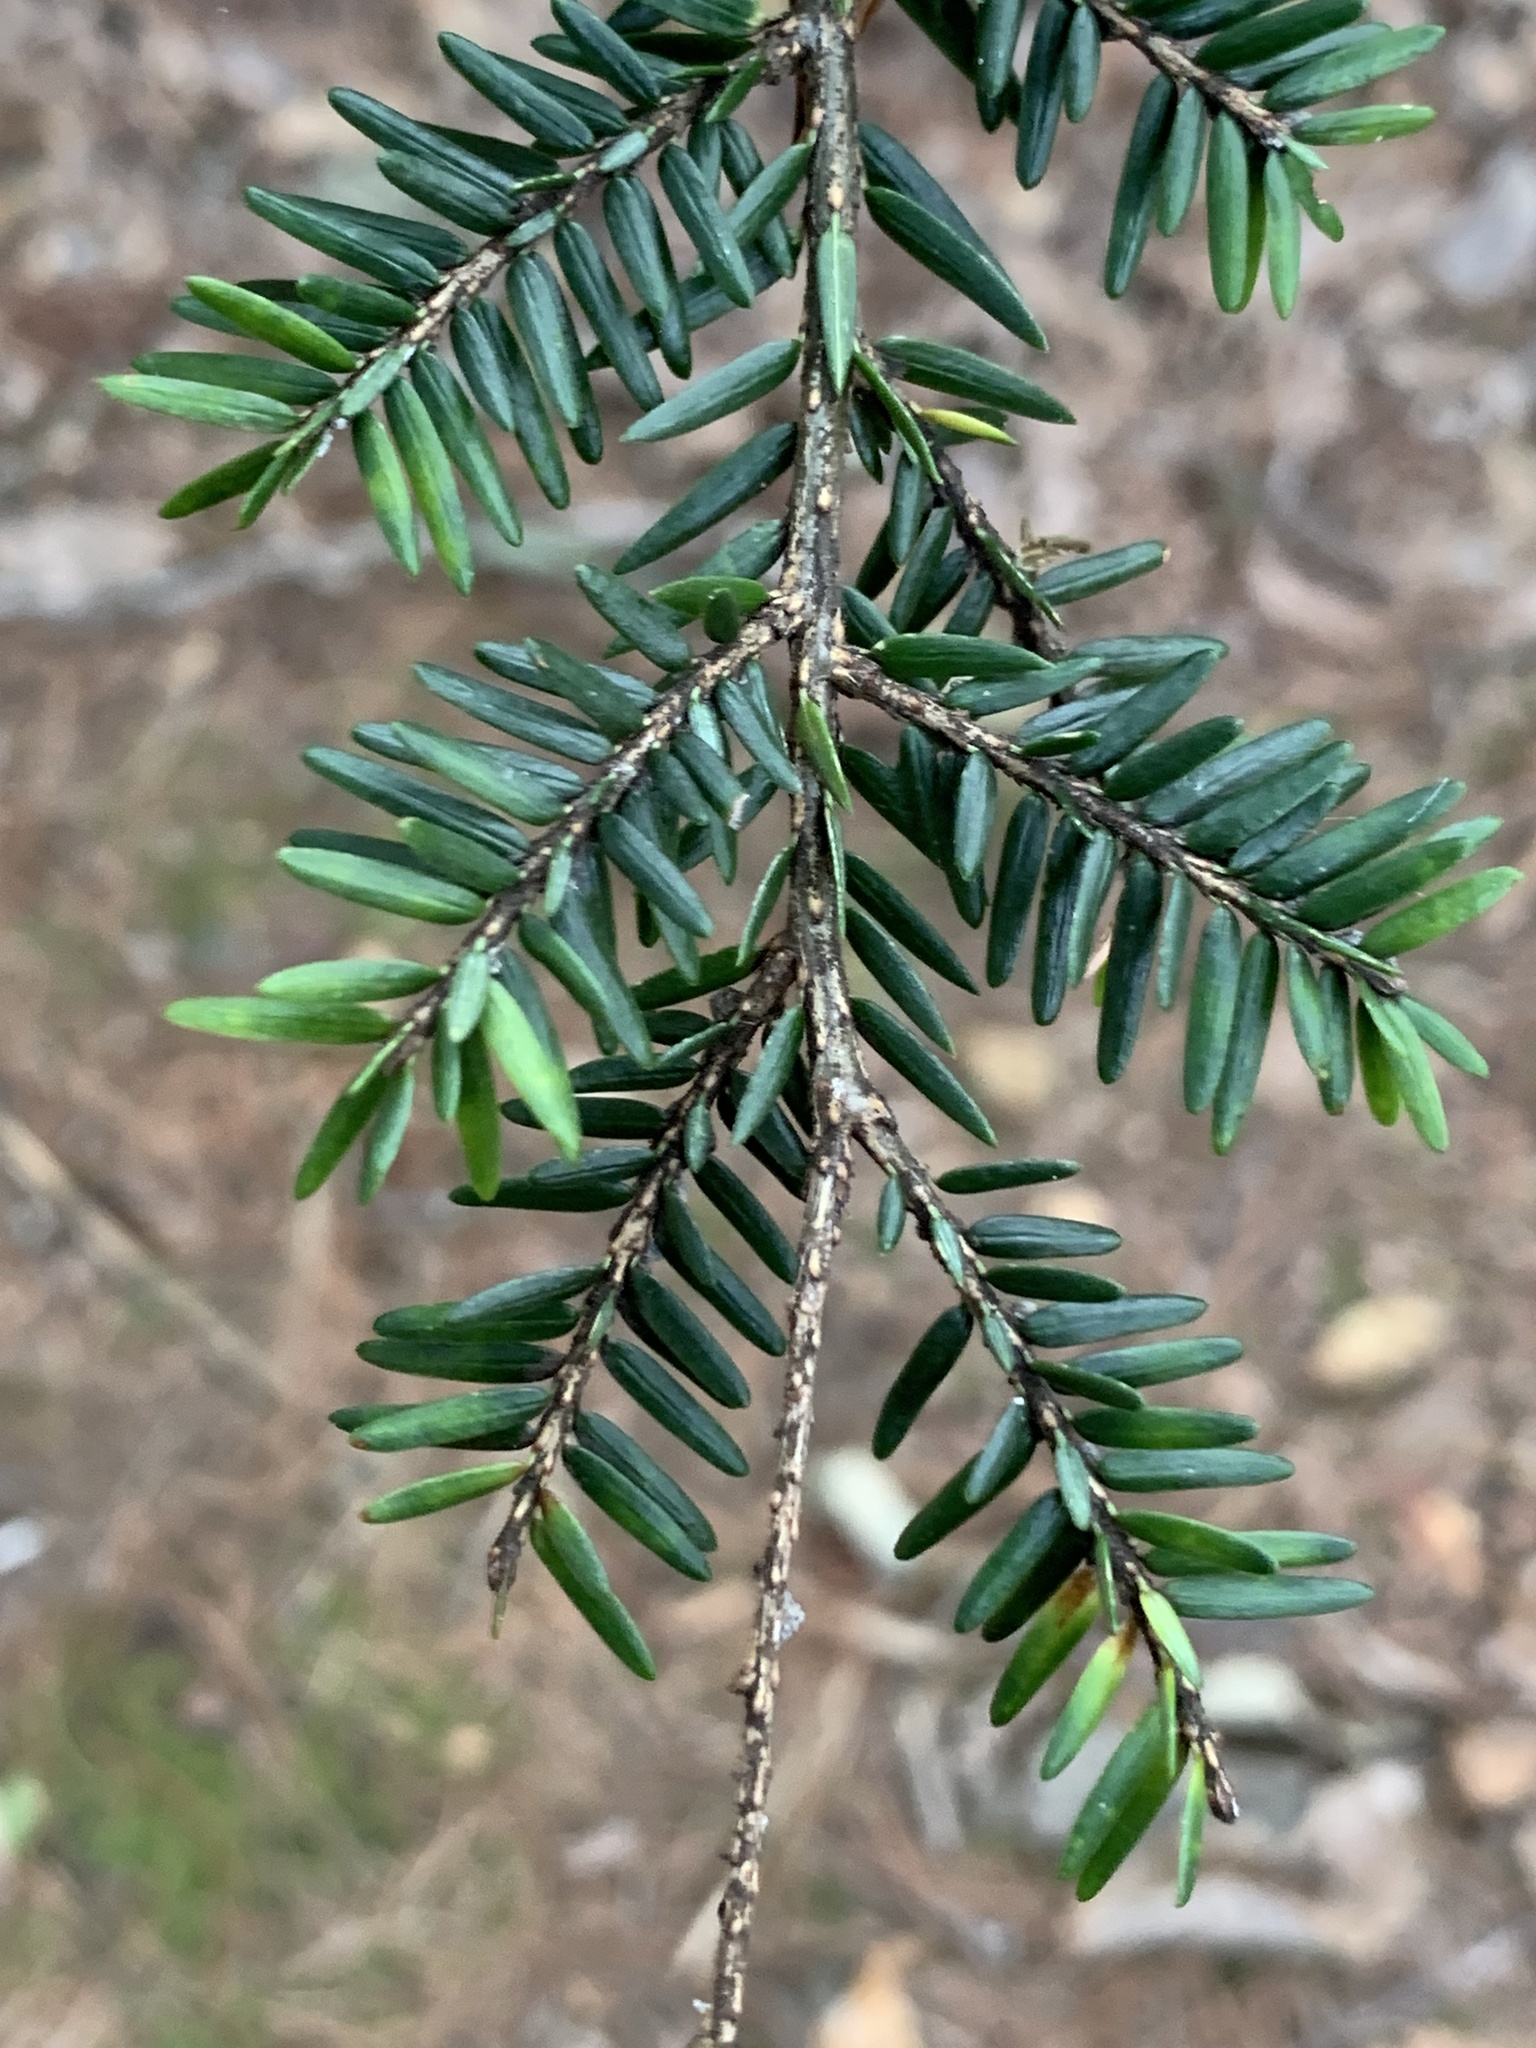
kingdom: Plantae
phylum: Tracheophyta
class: Pinopsida
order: Pinales
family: Pinaceae
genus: Tsuga
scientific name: Tsuga canadensis
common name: Eastern hemlock
